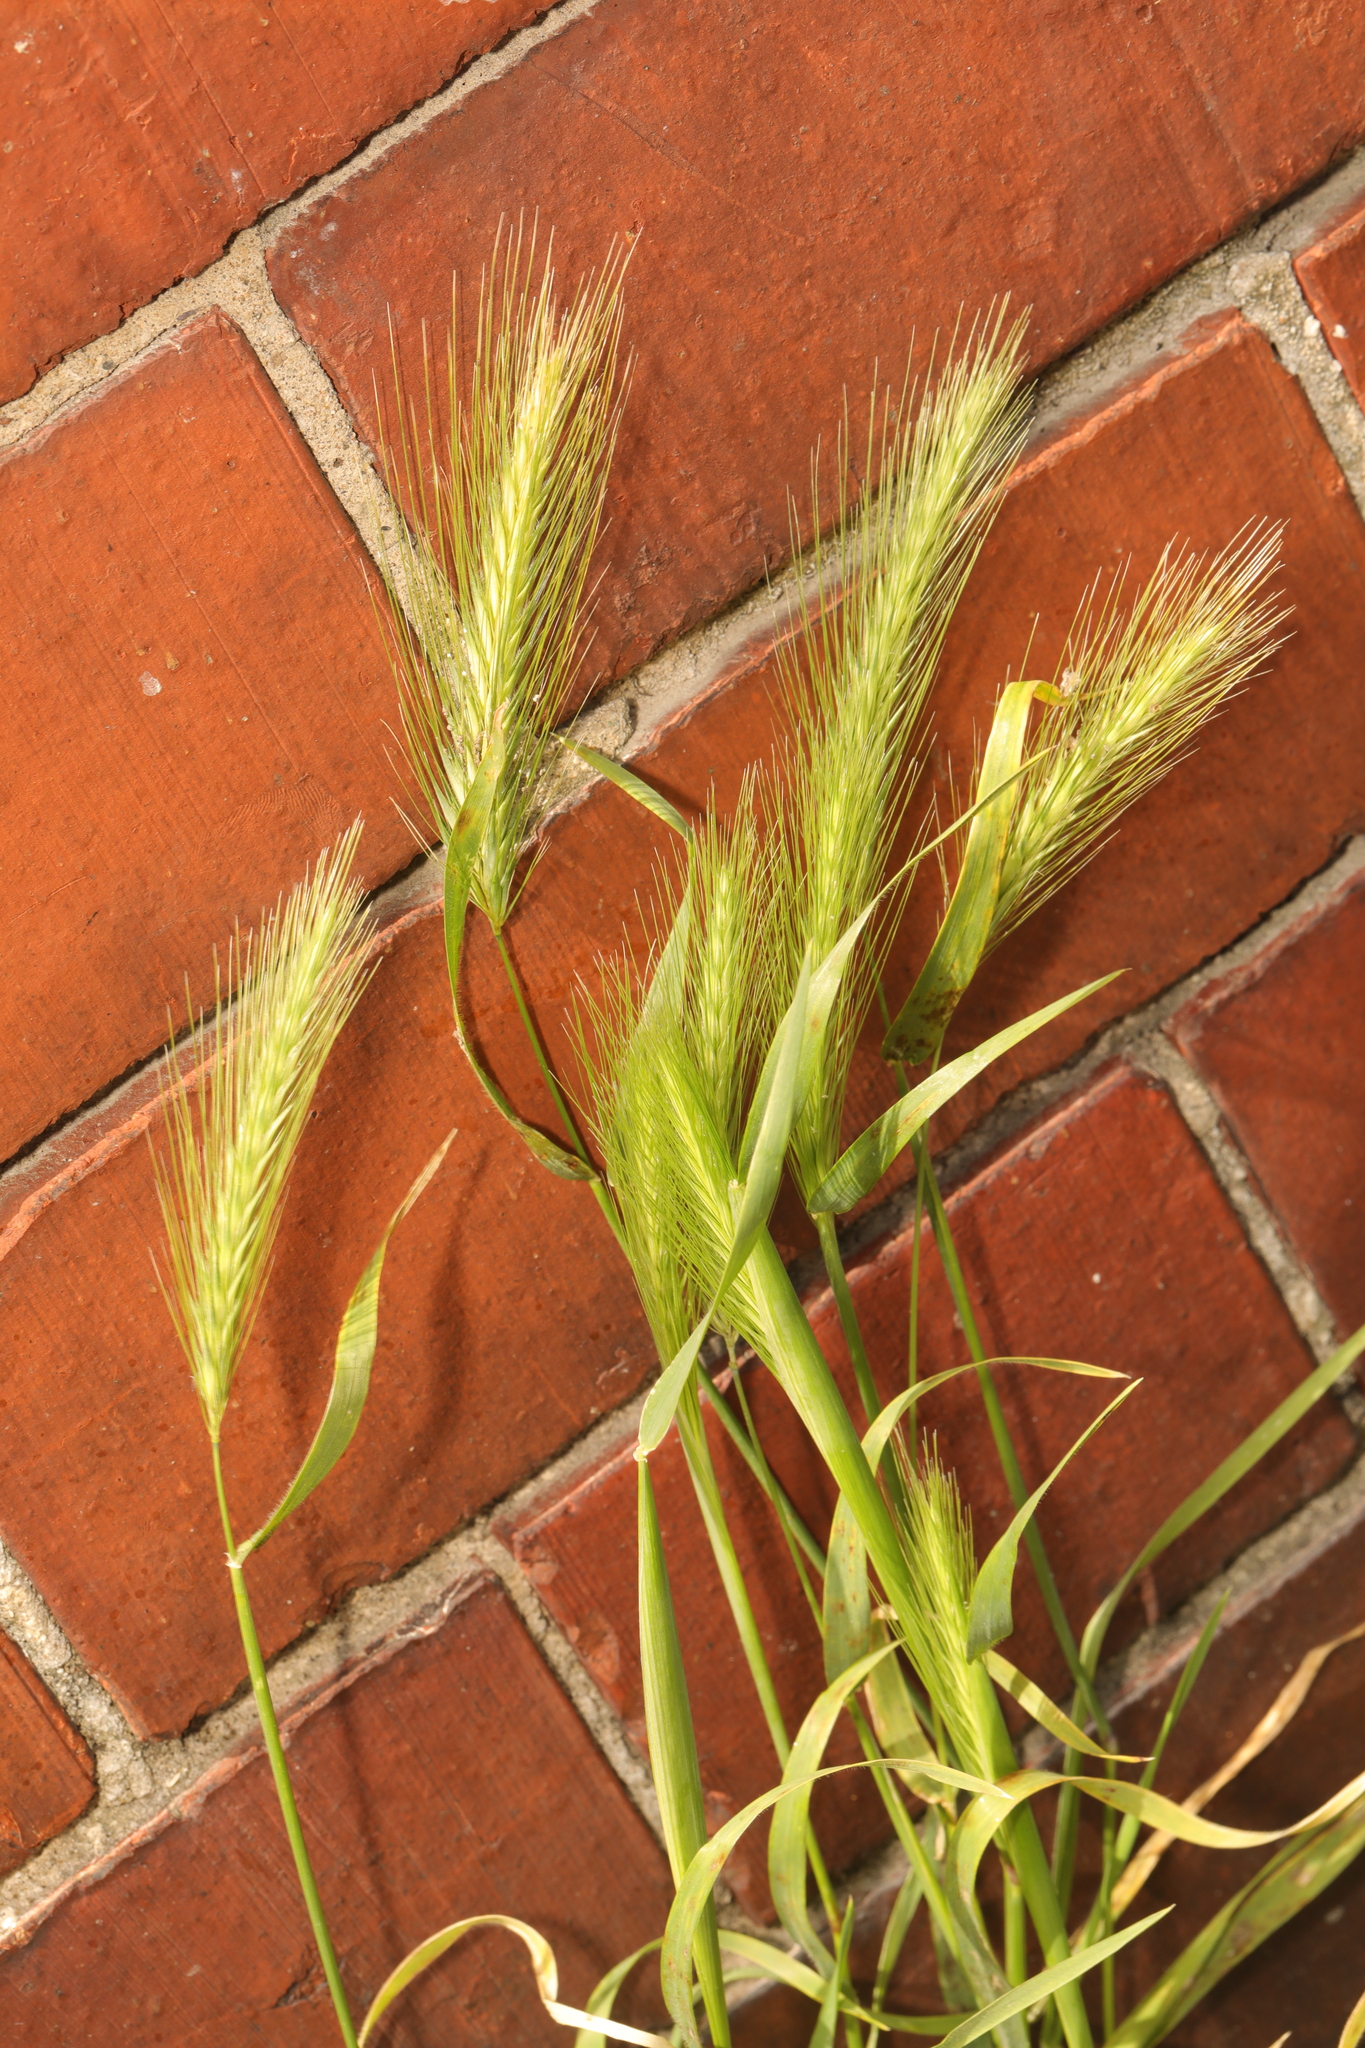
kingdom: Plantae
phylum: Tracheophyta
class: Liliopsida
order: Poales
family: Poaceae
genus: Hordeum
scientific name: Hordeum murinum
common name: Wall barley
